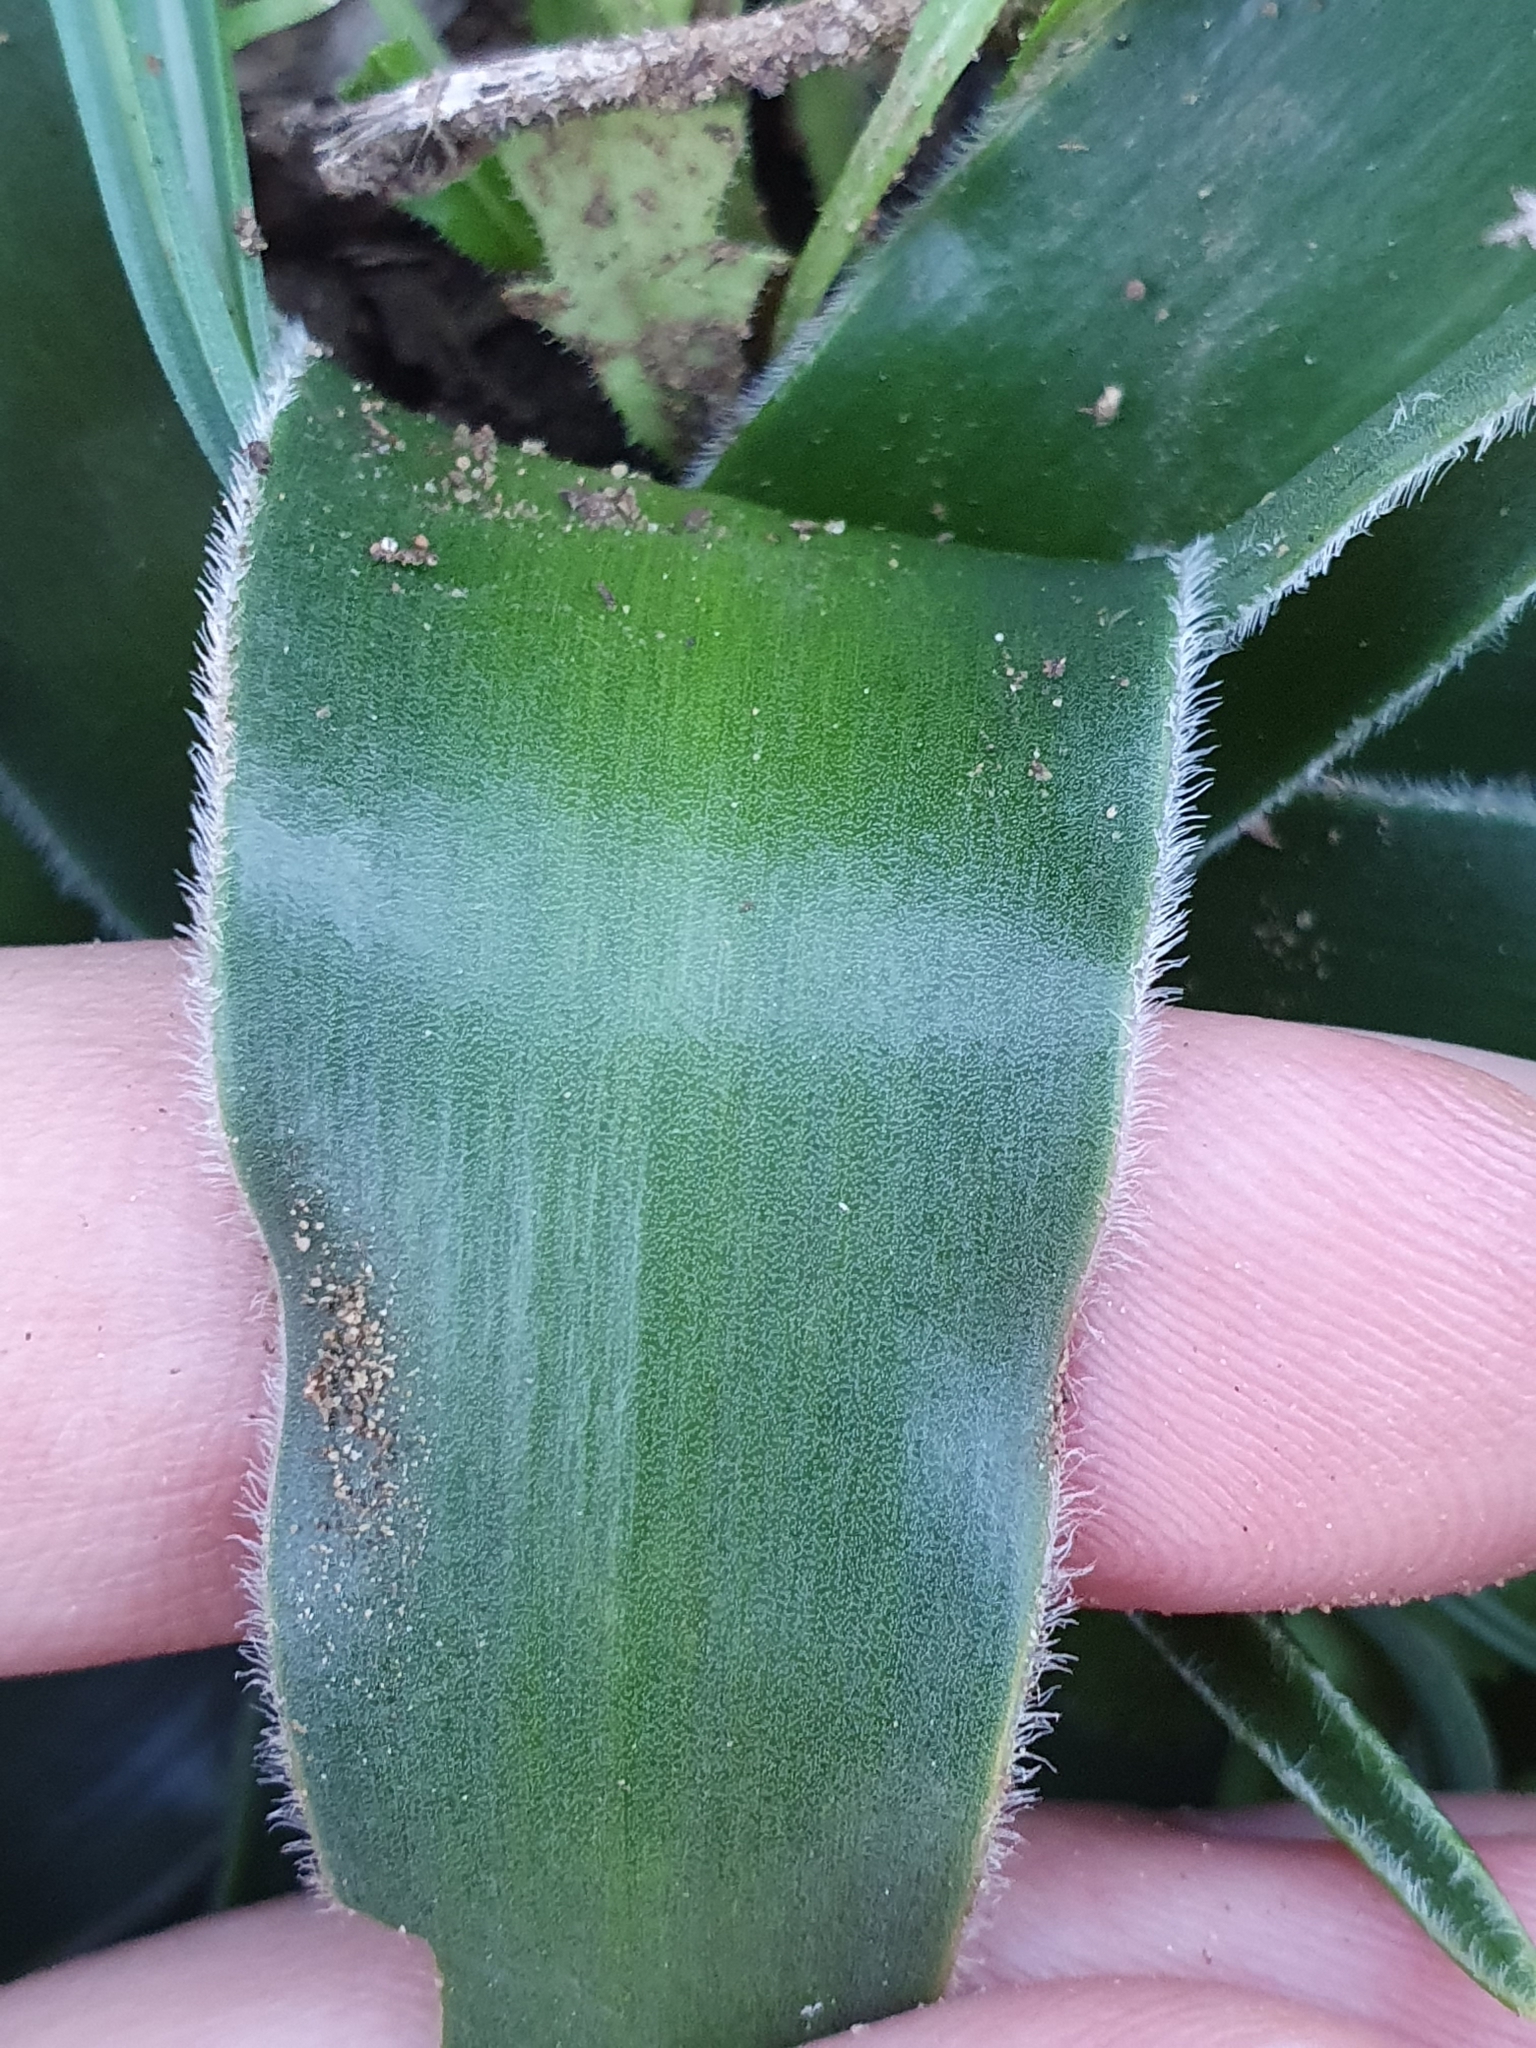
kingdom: Plantae
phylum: Tracheophyta
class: Liliopsida
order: Asparagales
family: Asparagaceae
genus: Scilla
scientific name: Scilla peruviana
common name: Portuguese squill
